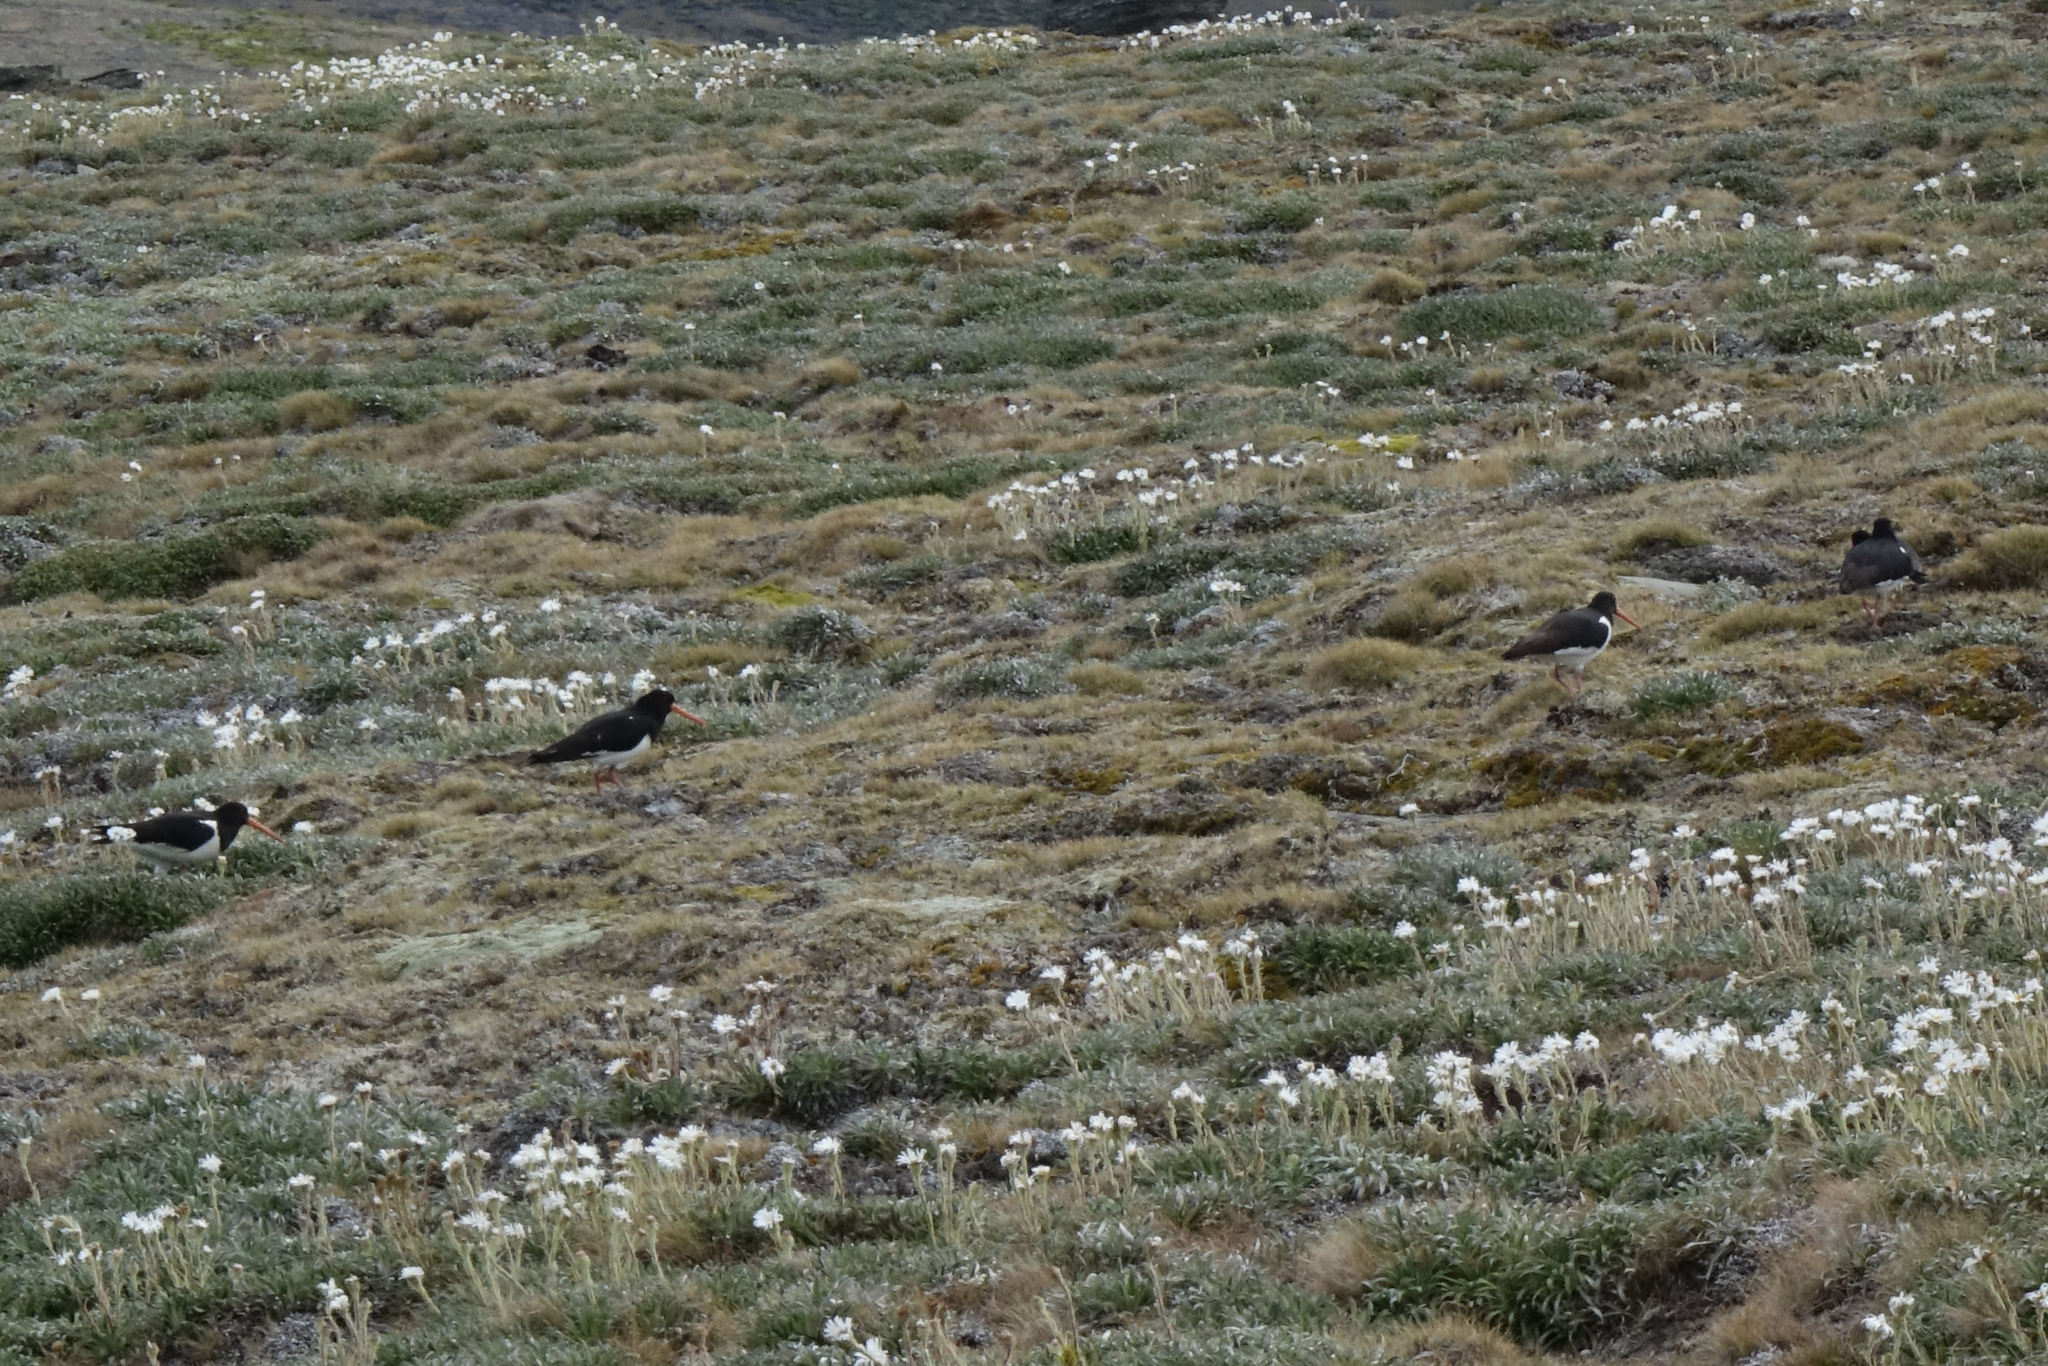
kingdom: Animalia
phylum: Chordata
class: Aves
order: Charadriiformes
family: Haematopodidae
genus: Haematopus
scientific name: Haematopus finschi
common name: South island oystercatcher
